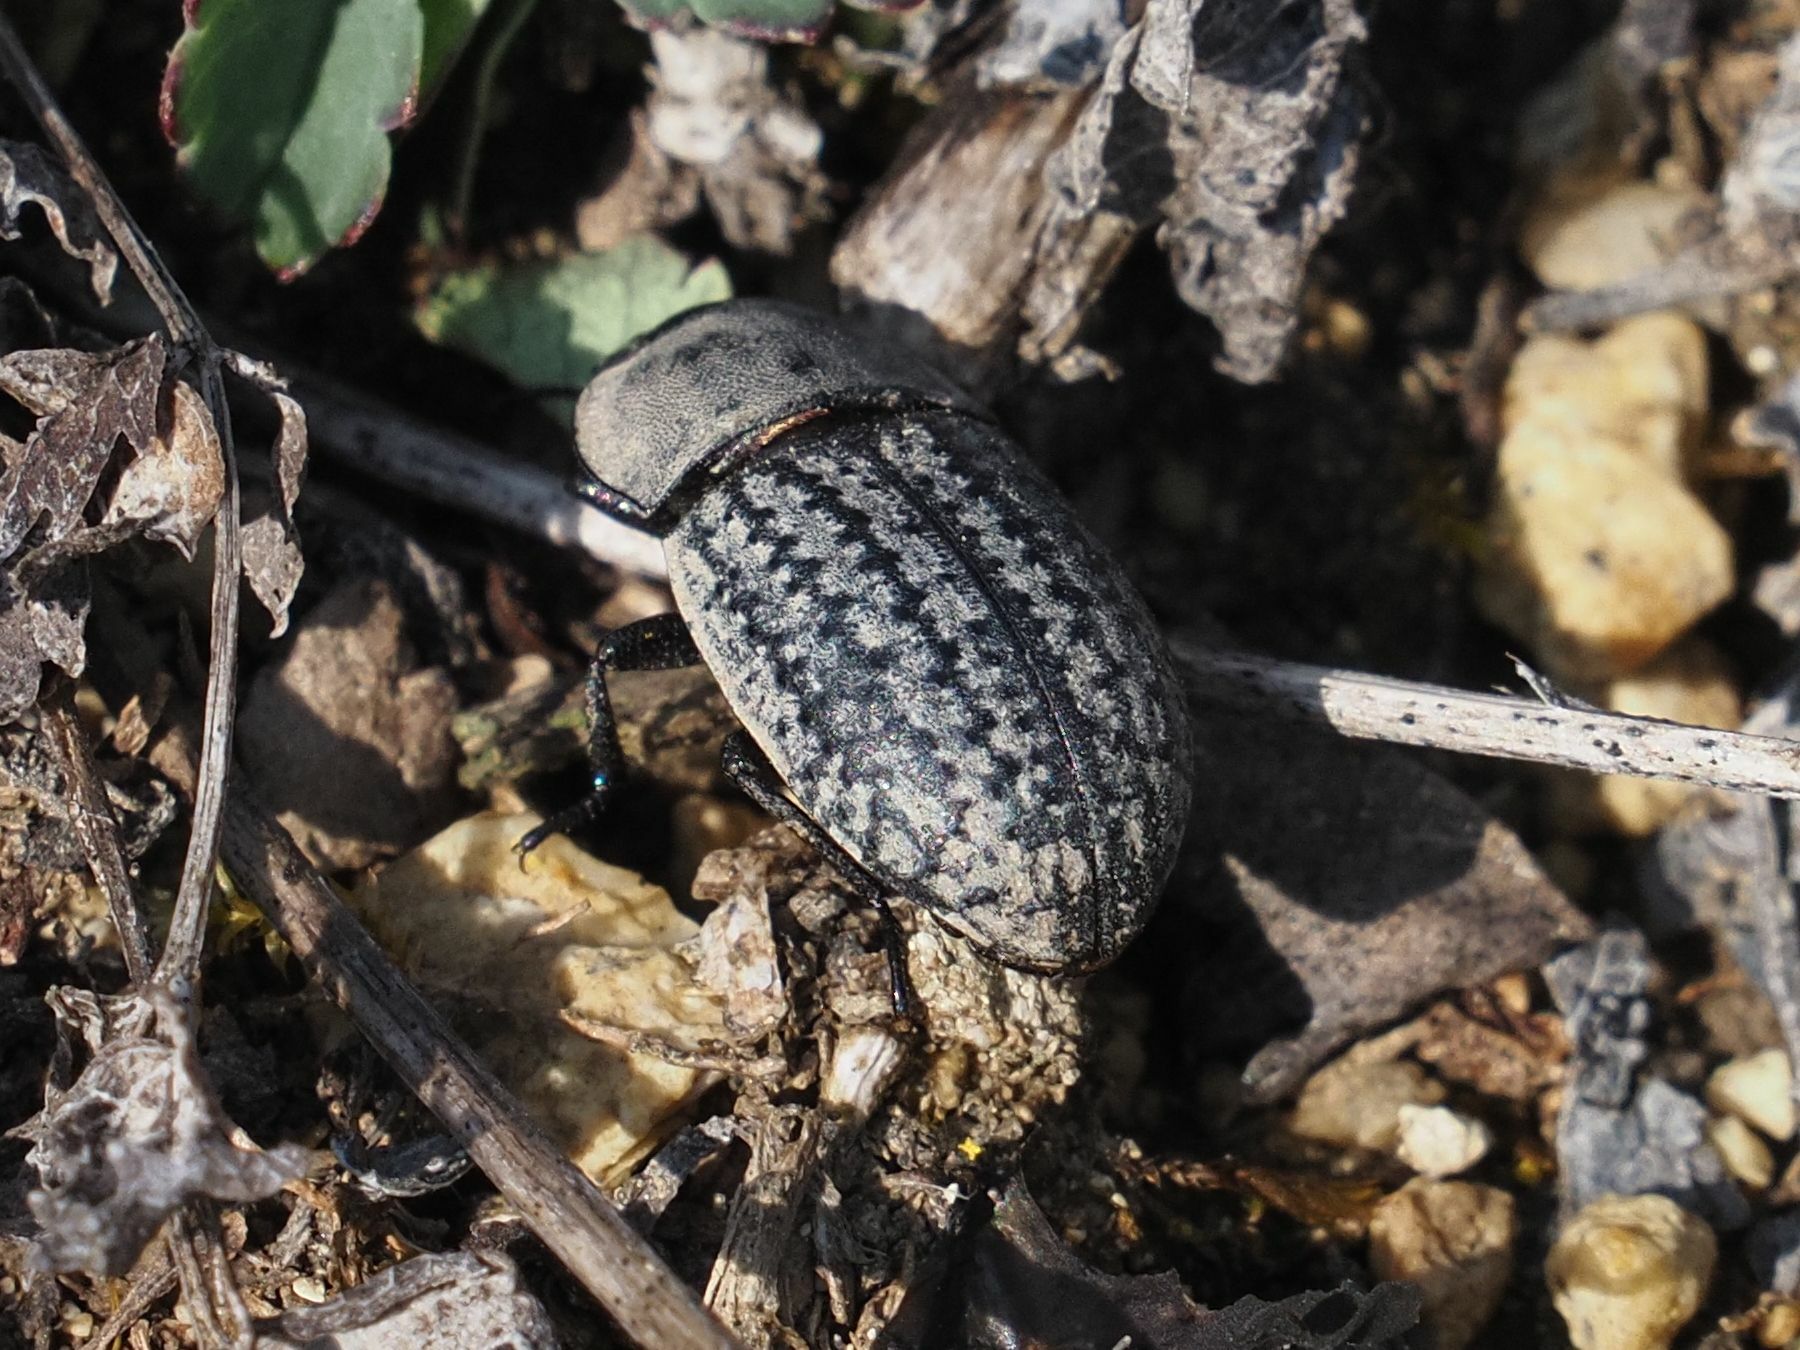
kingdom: Animalia
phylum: Arthropoda
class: Insecta
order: Coleoptera
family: Tenebrionidae
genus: Opatrum
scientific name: Opatrum sabulosum
